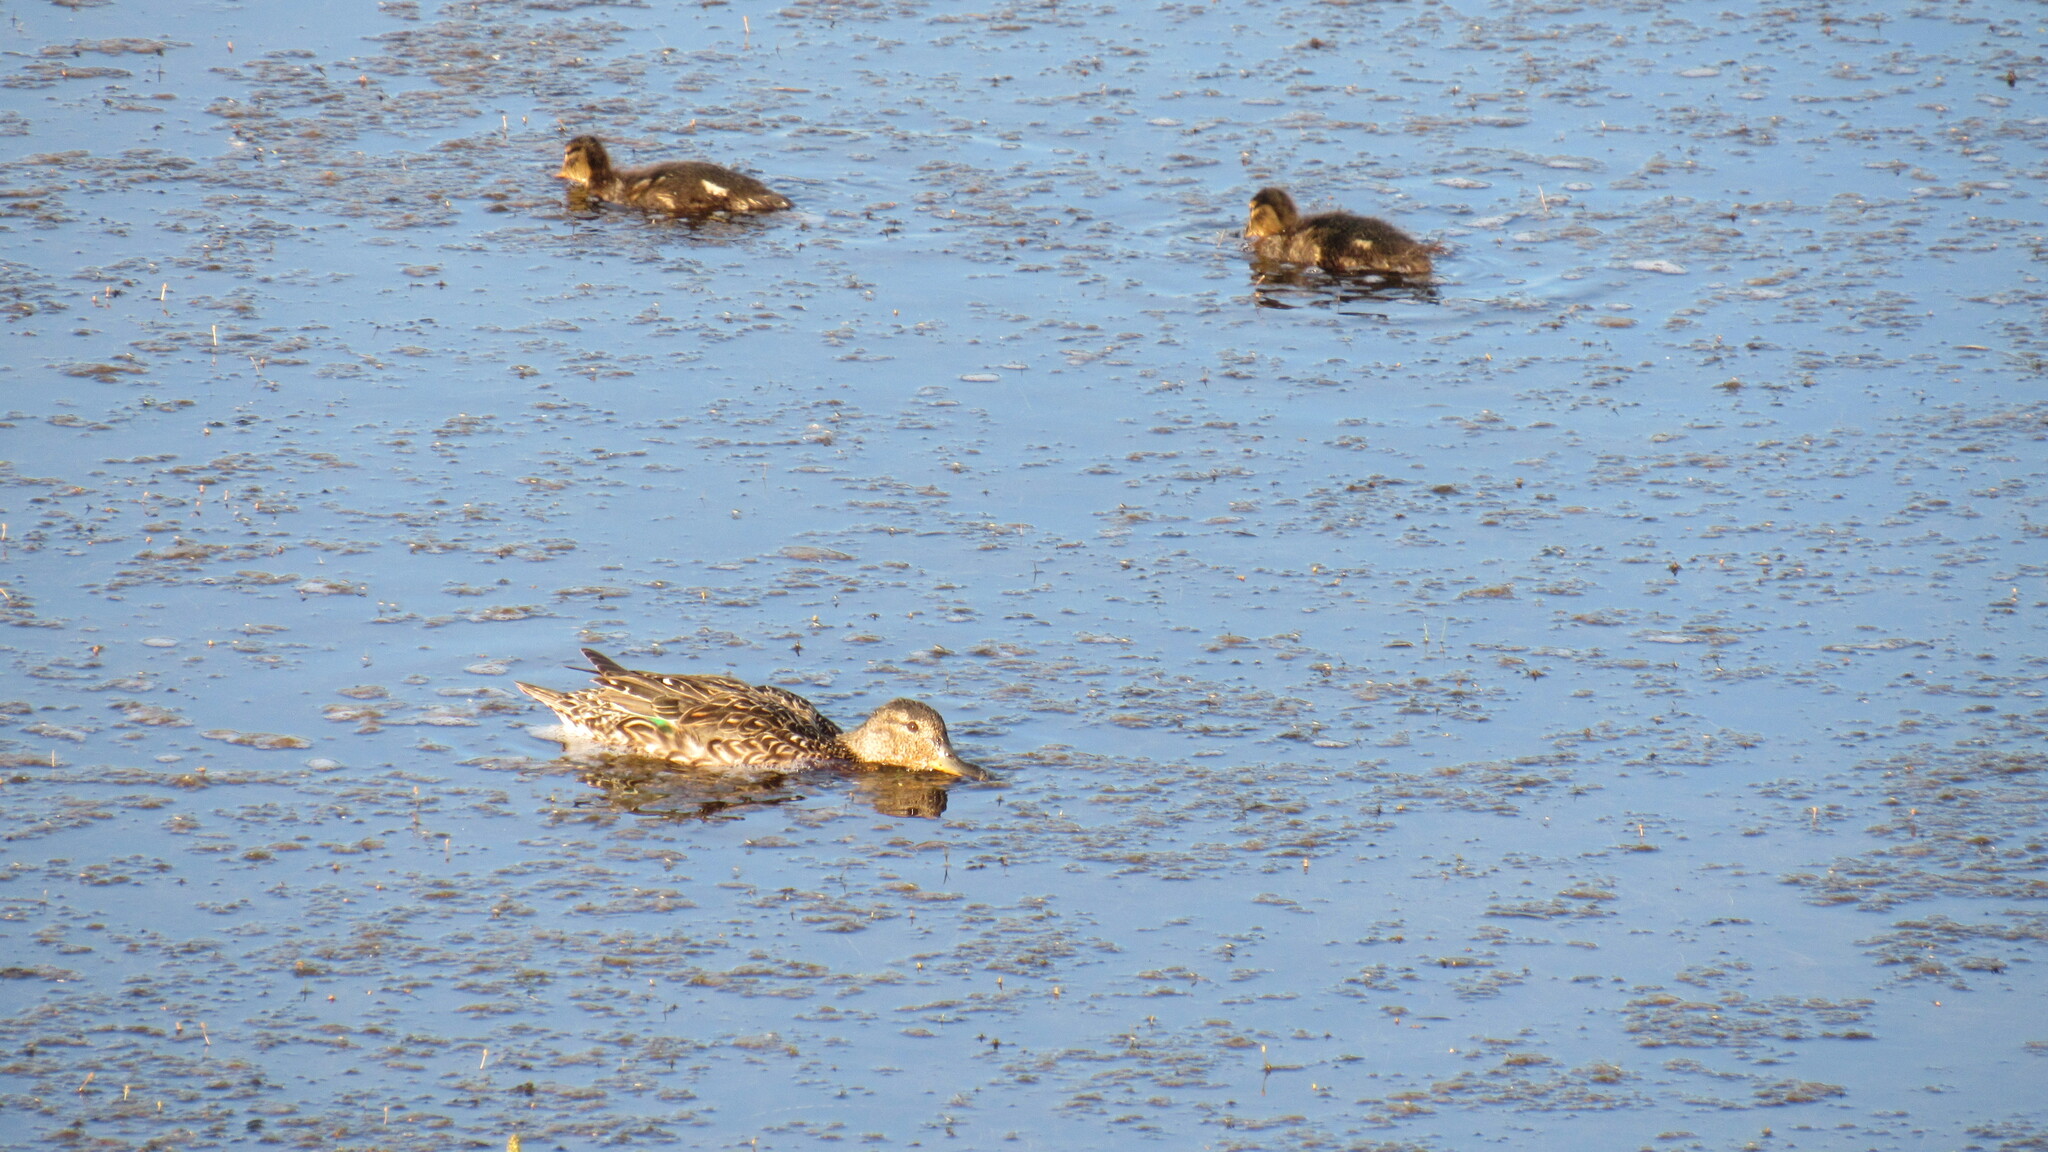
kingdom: Animalia
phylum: Chordata
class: Aves
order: Anseriformes
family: Anatidae
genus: Anas
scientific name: Anas crecca
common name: Eurasian teal
